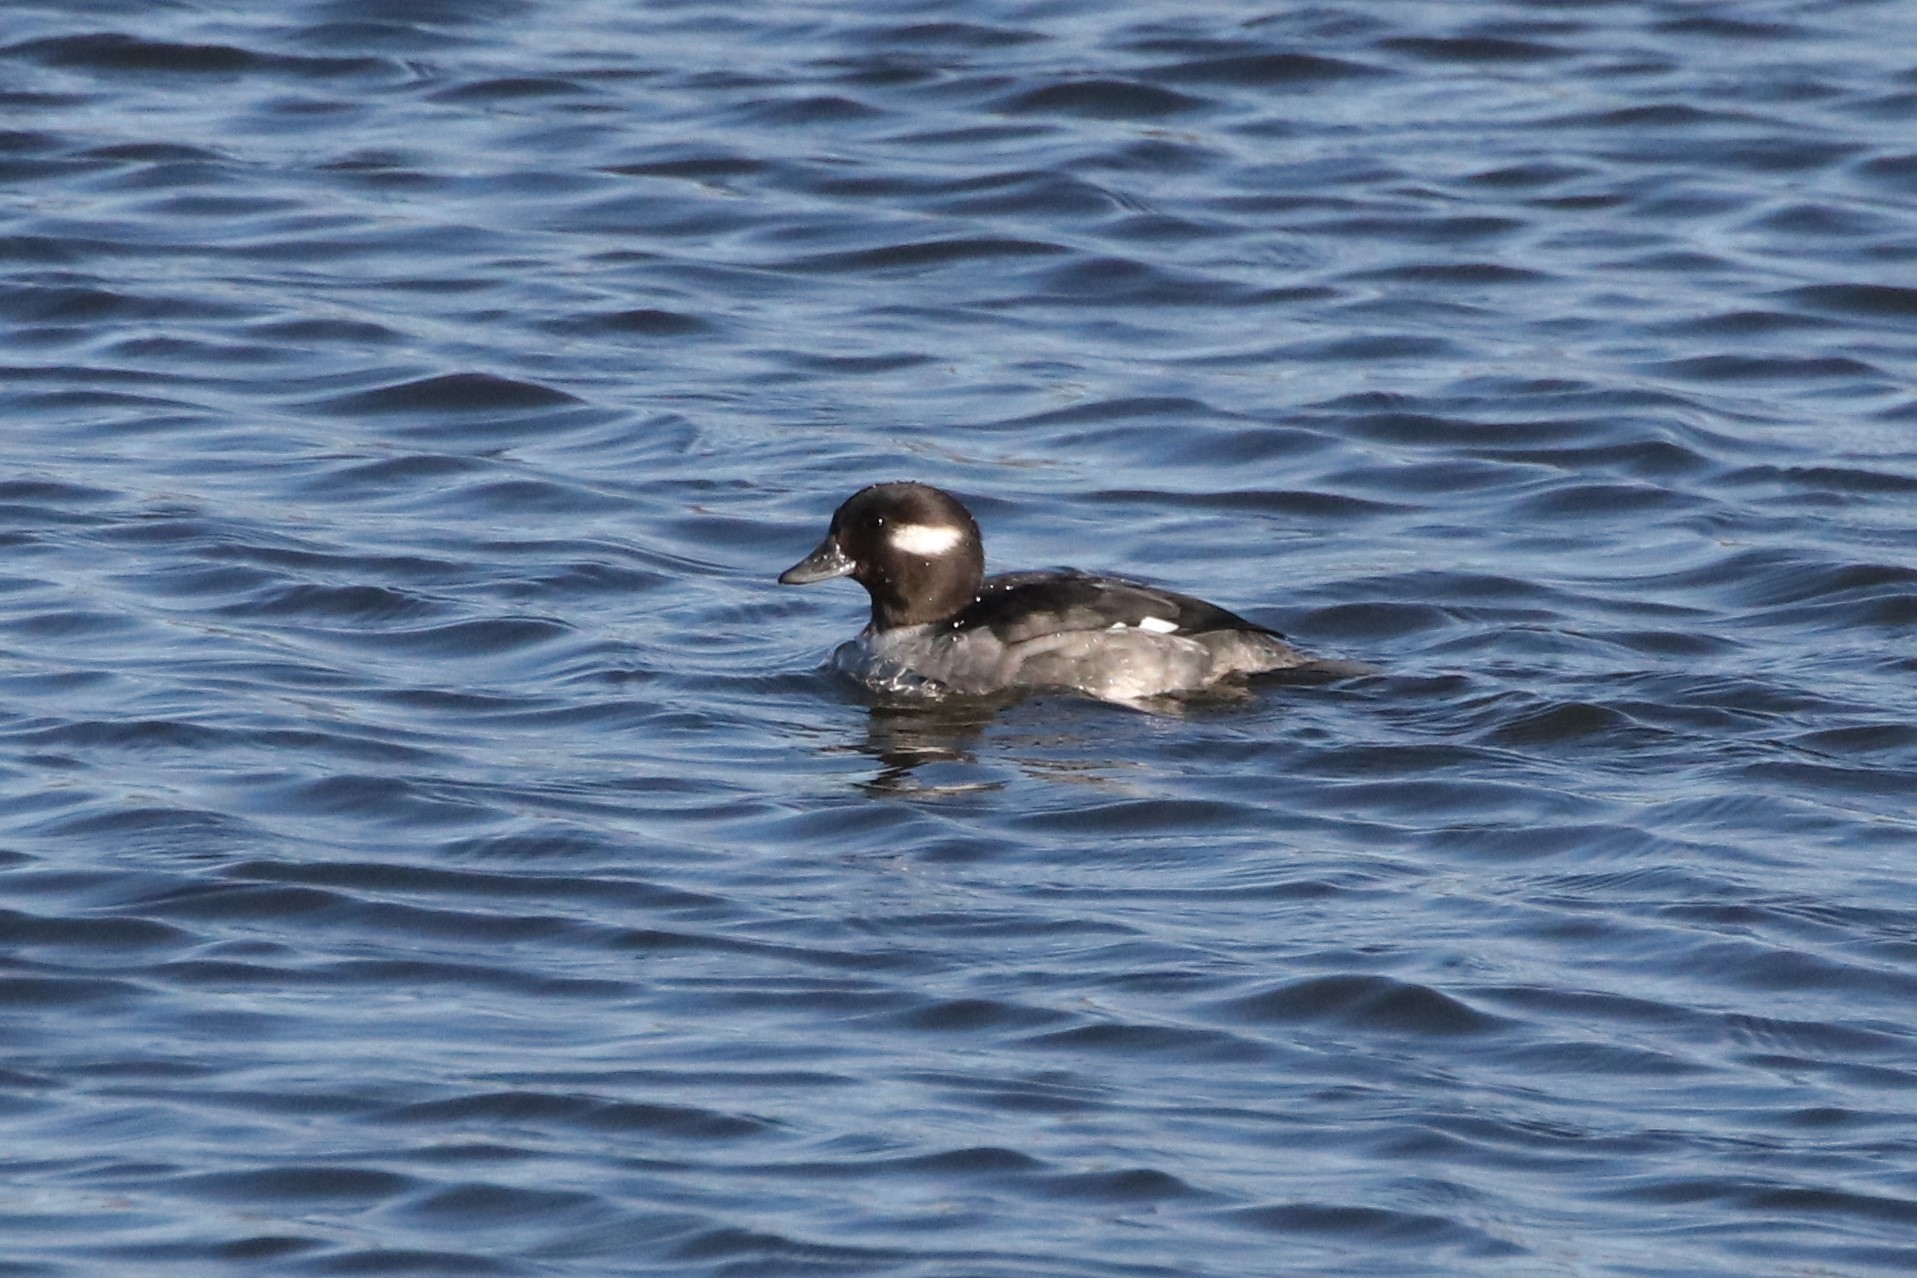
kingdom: Animalia
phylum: Chordata
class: Aves
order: Anseriformes
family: Anatidae
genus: Bucephala
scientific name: Bucephala albeola
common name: Bufflehead
